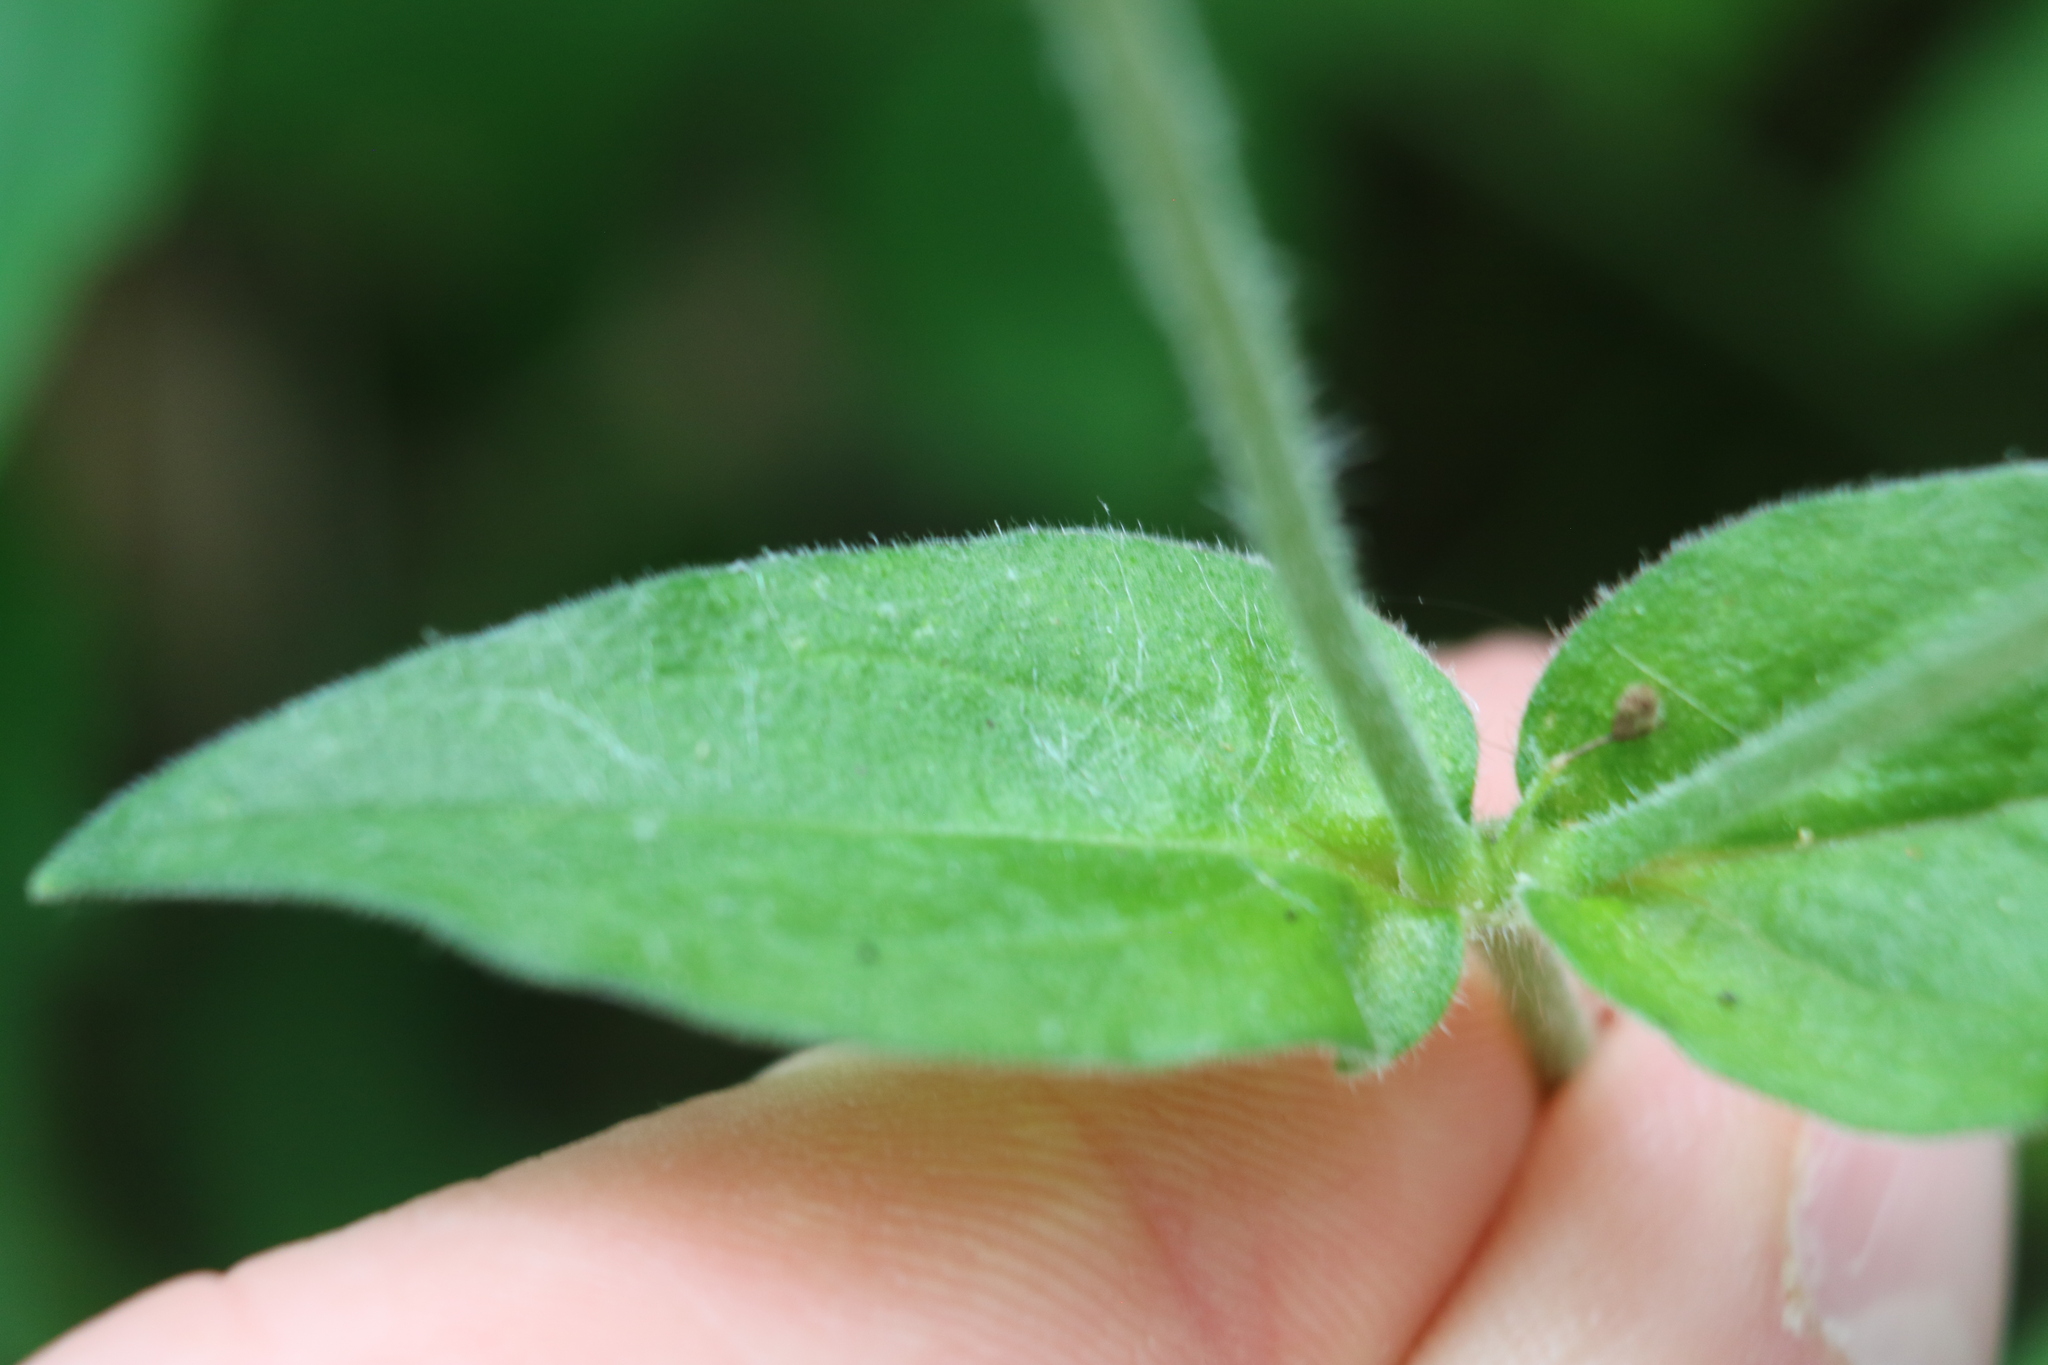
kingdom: Plantae
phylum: Tracheophyta
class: Magnoliopsida
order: Caryophyllales
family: Caryophyllaceae
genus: Silene
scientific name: Silene latifolia
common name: White campion
